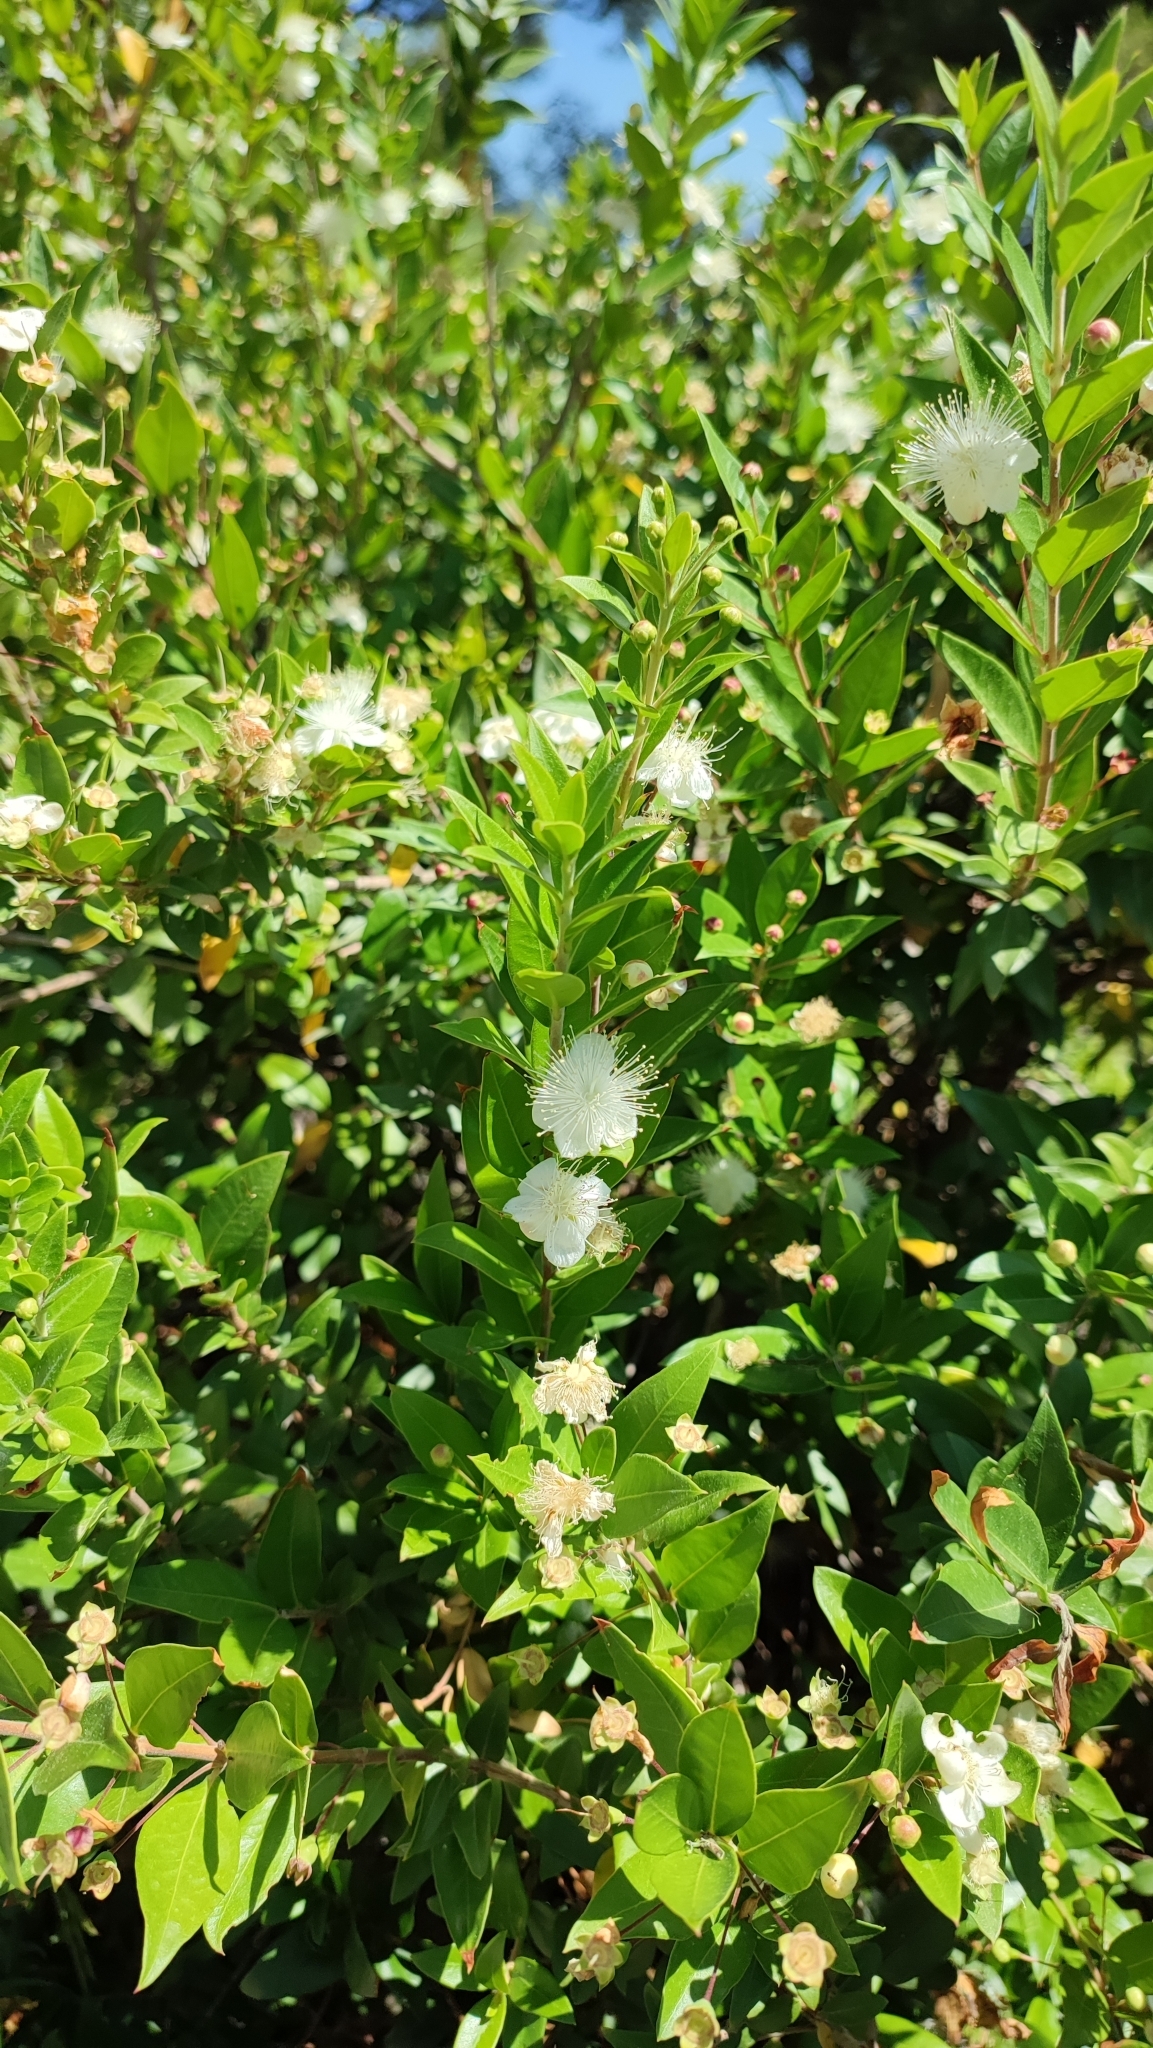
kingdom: Plantae
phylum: Tracheophyta
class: Magnoliopsida
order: Myrtales
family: Myrtaceae
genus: Myrtus
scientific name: Myrtus communis
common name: Myrtle
